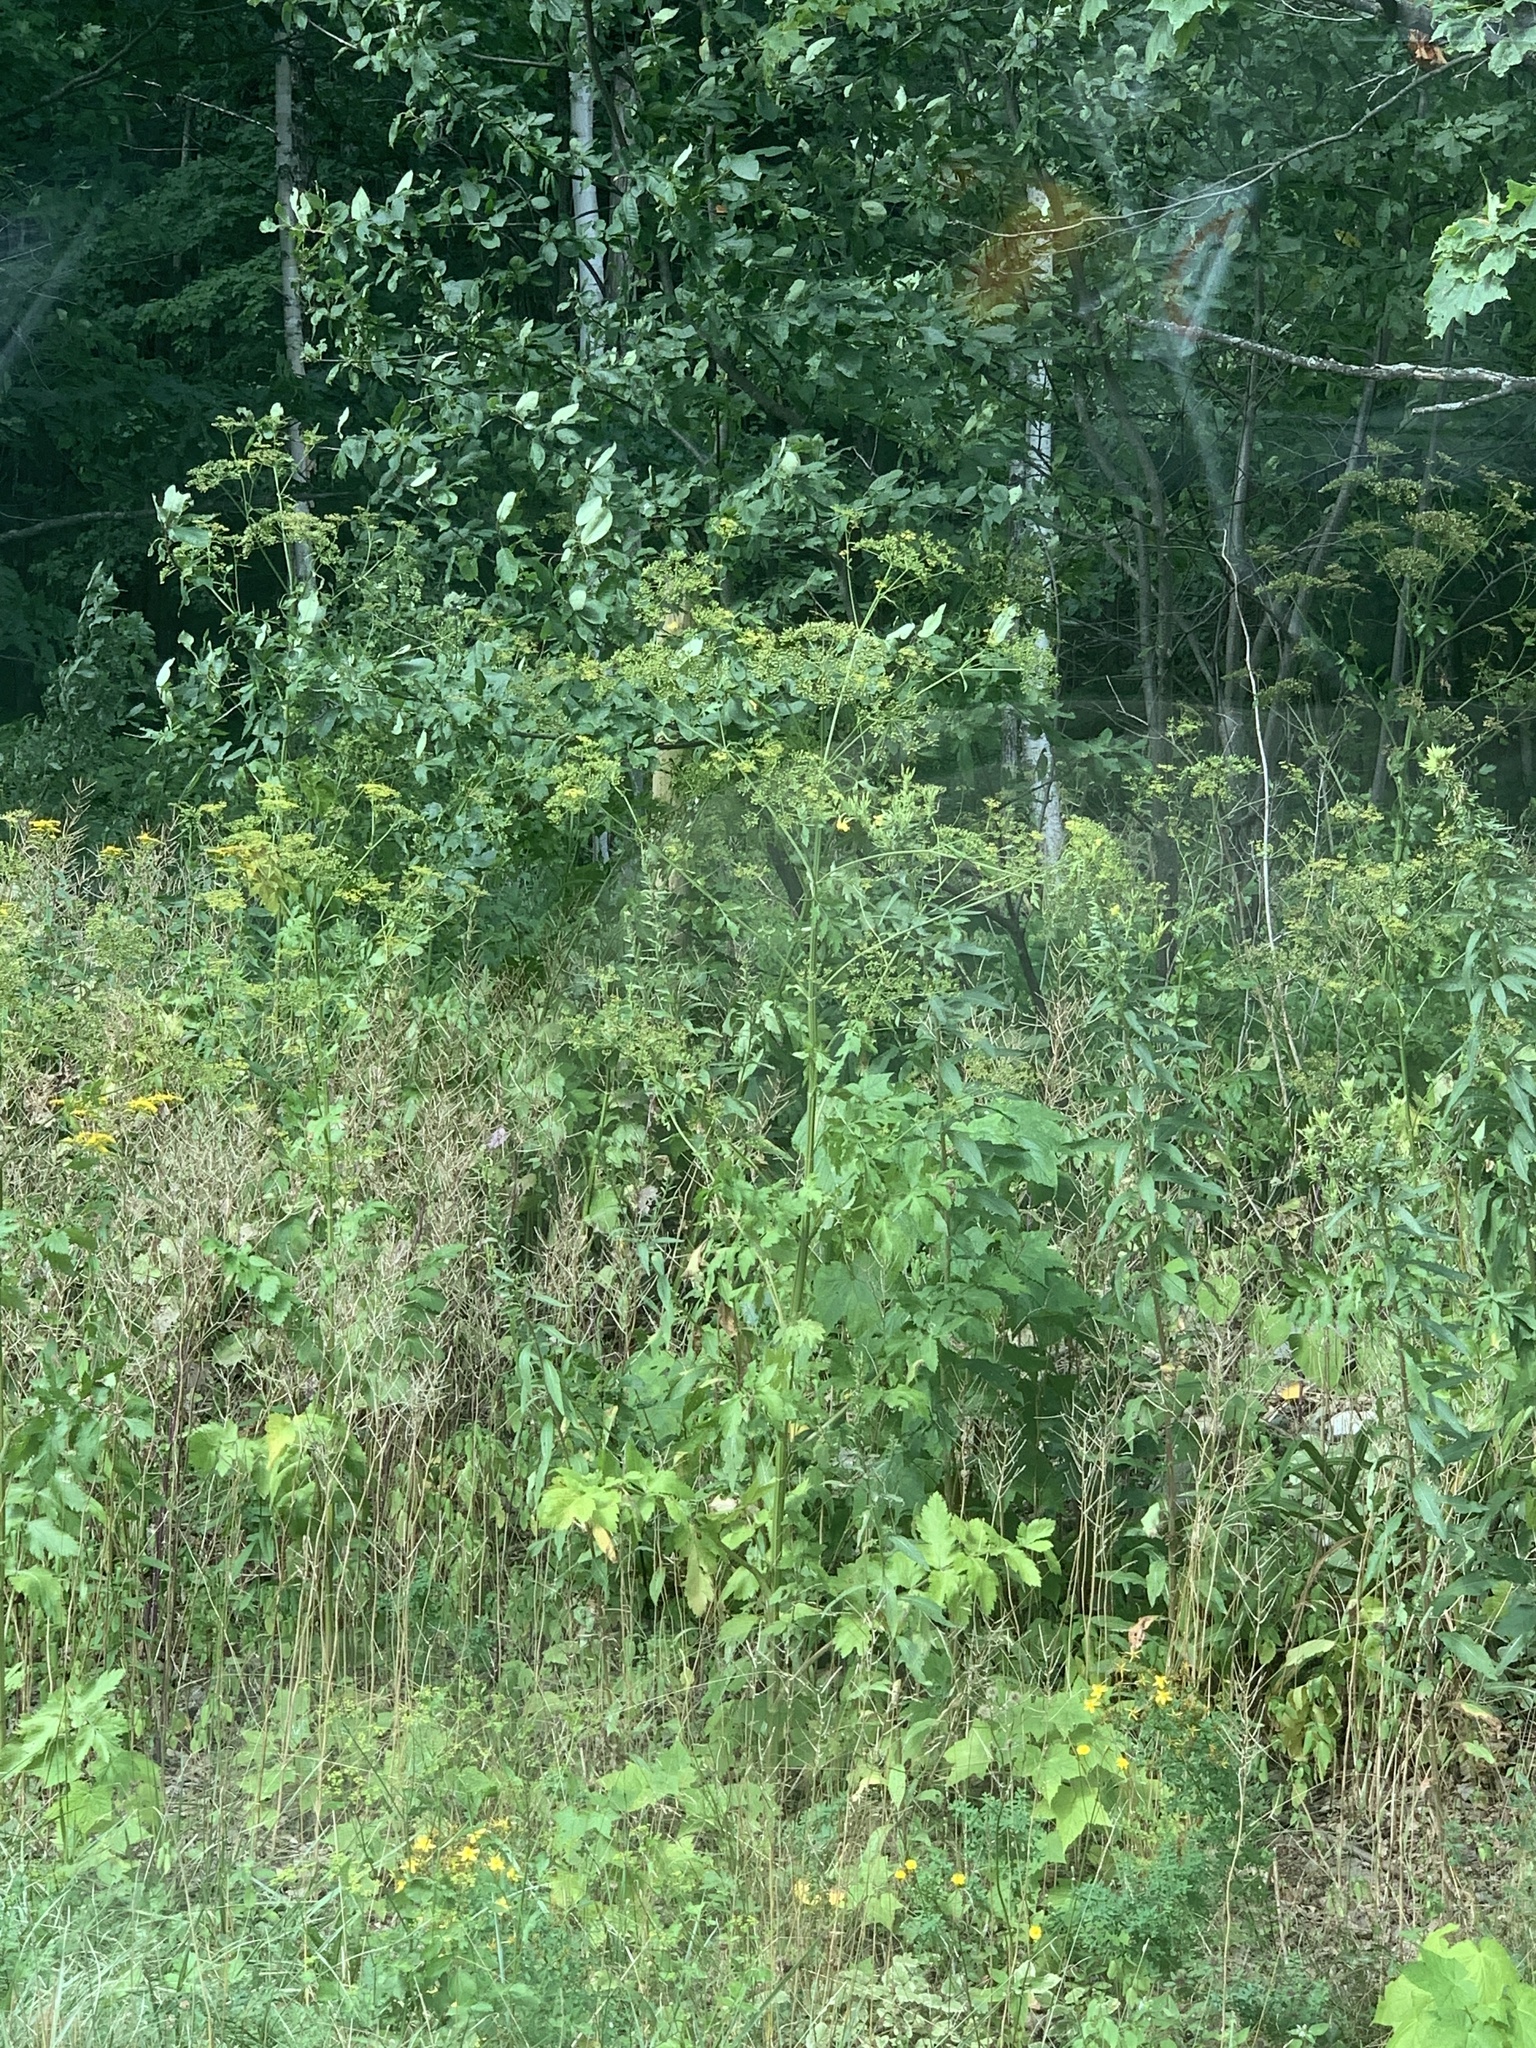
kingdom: Plantae
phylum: Tracheophyta
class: Magnoliopsida
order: Apiales
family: Apiaceae
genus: Pastinaca
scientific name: Pastinaca sativa
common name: Wild parsnip
